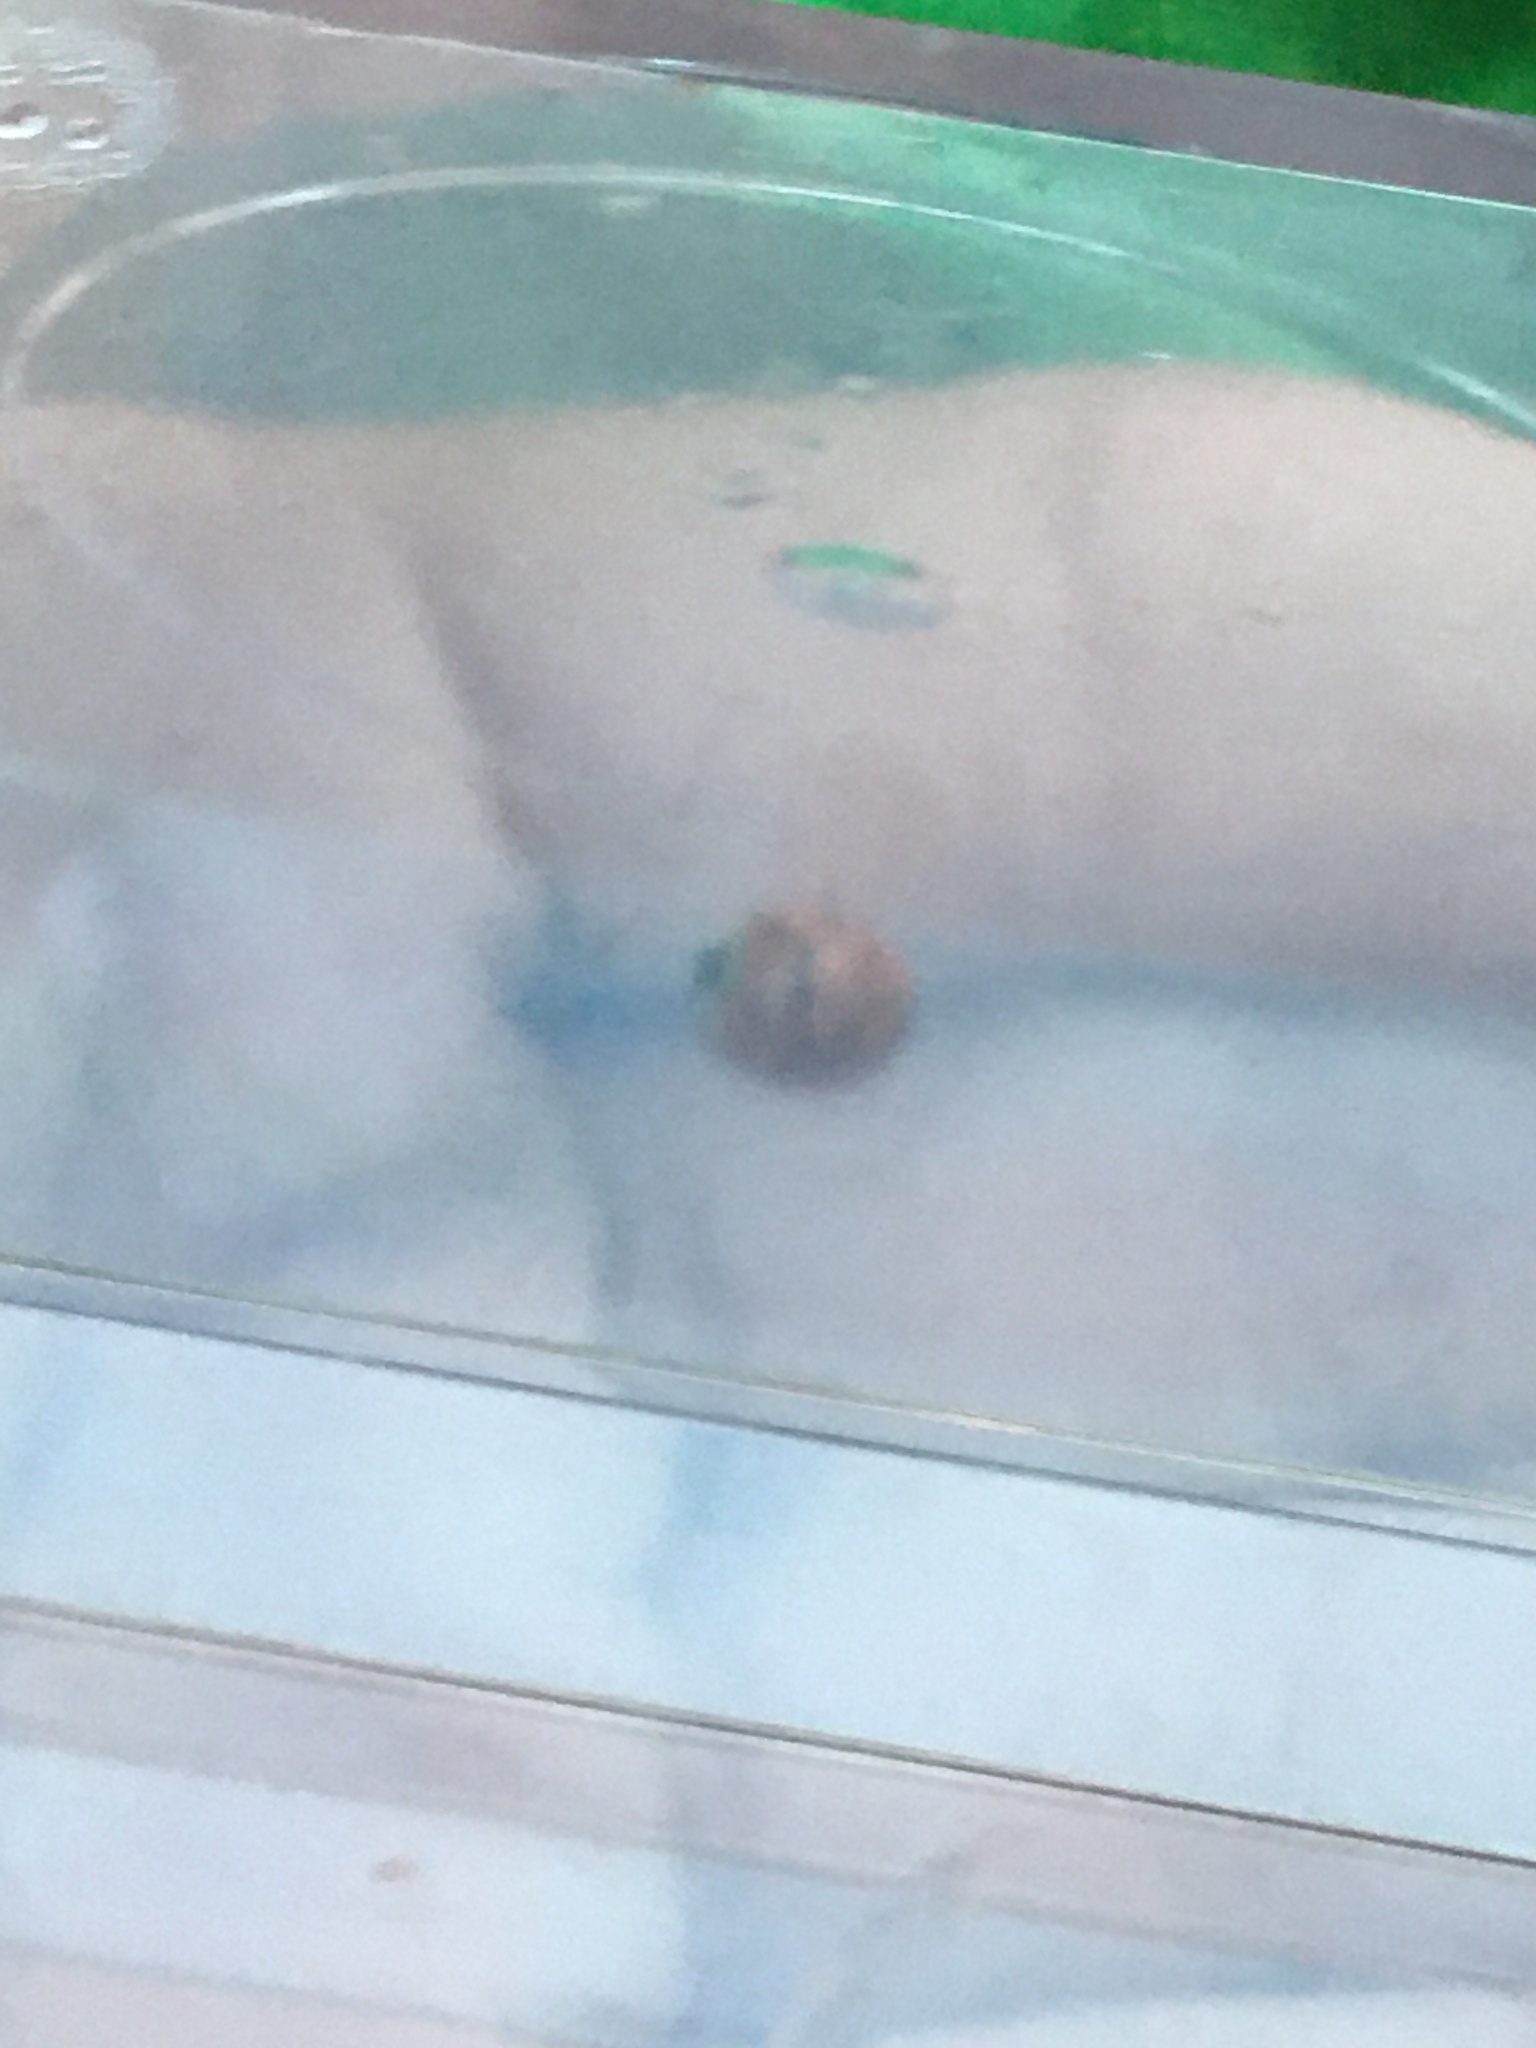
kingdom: Animalia
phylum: Arthropoda
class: Insecta
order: Coleoptera
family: Coccinellidae
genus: Harmonia
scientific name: Harmonia axyridis
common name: Harlequin ladybird
